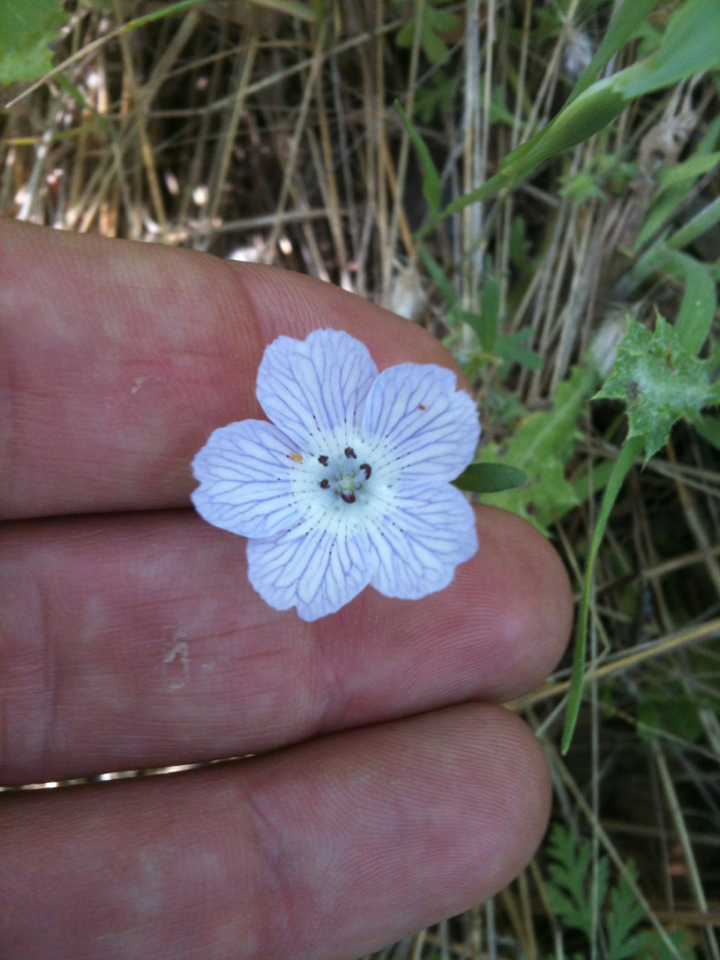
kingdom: Plantae
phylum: Tracheophyta
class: Magnoliopsida
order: Boraginales
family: Hydrophyllaceae
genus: Nemophila
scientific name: Nemophila menziesii
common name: Baby's-blue-eyes
